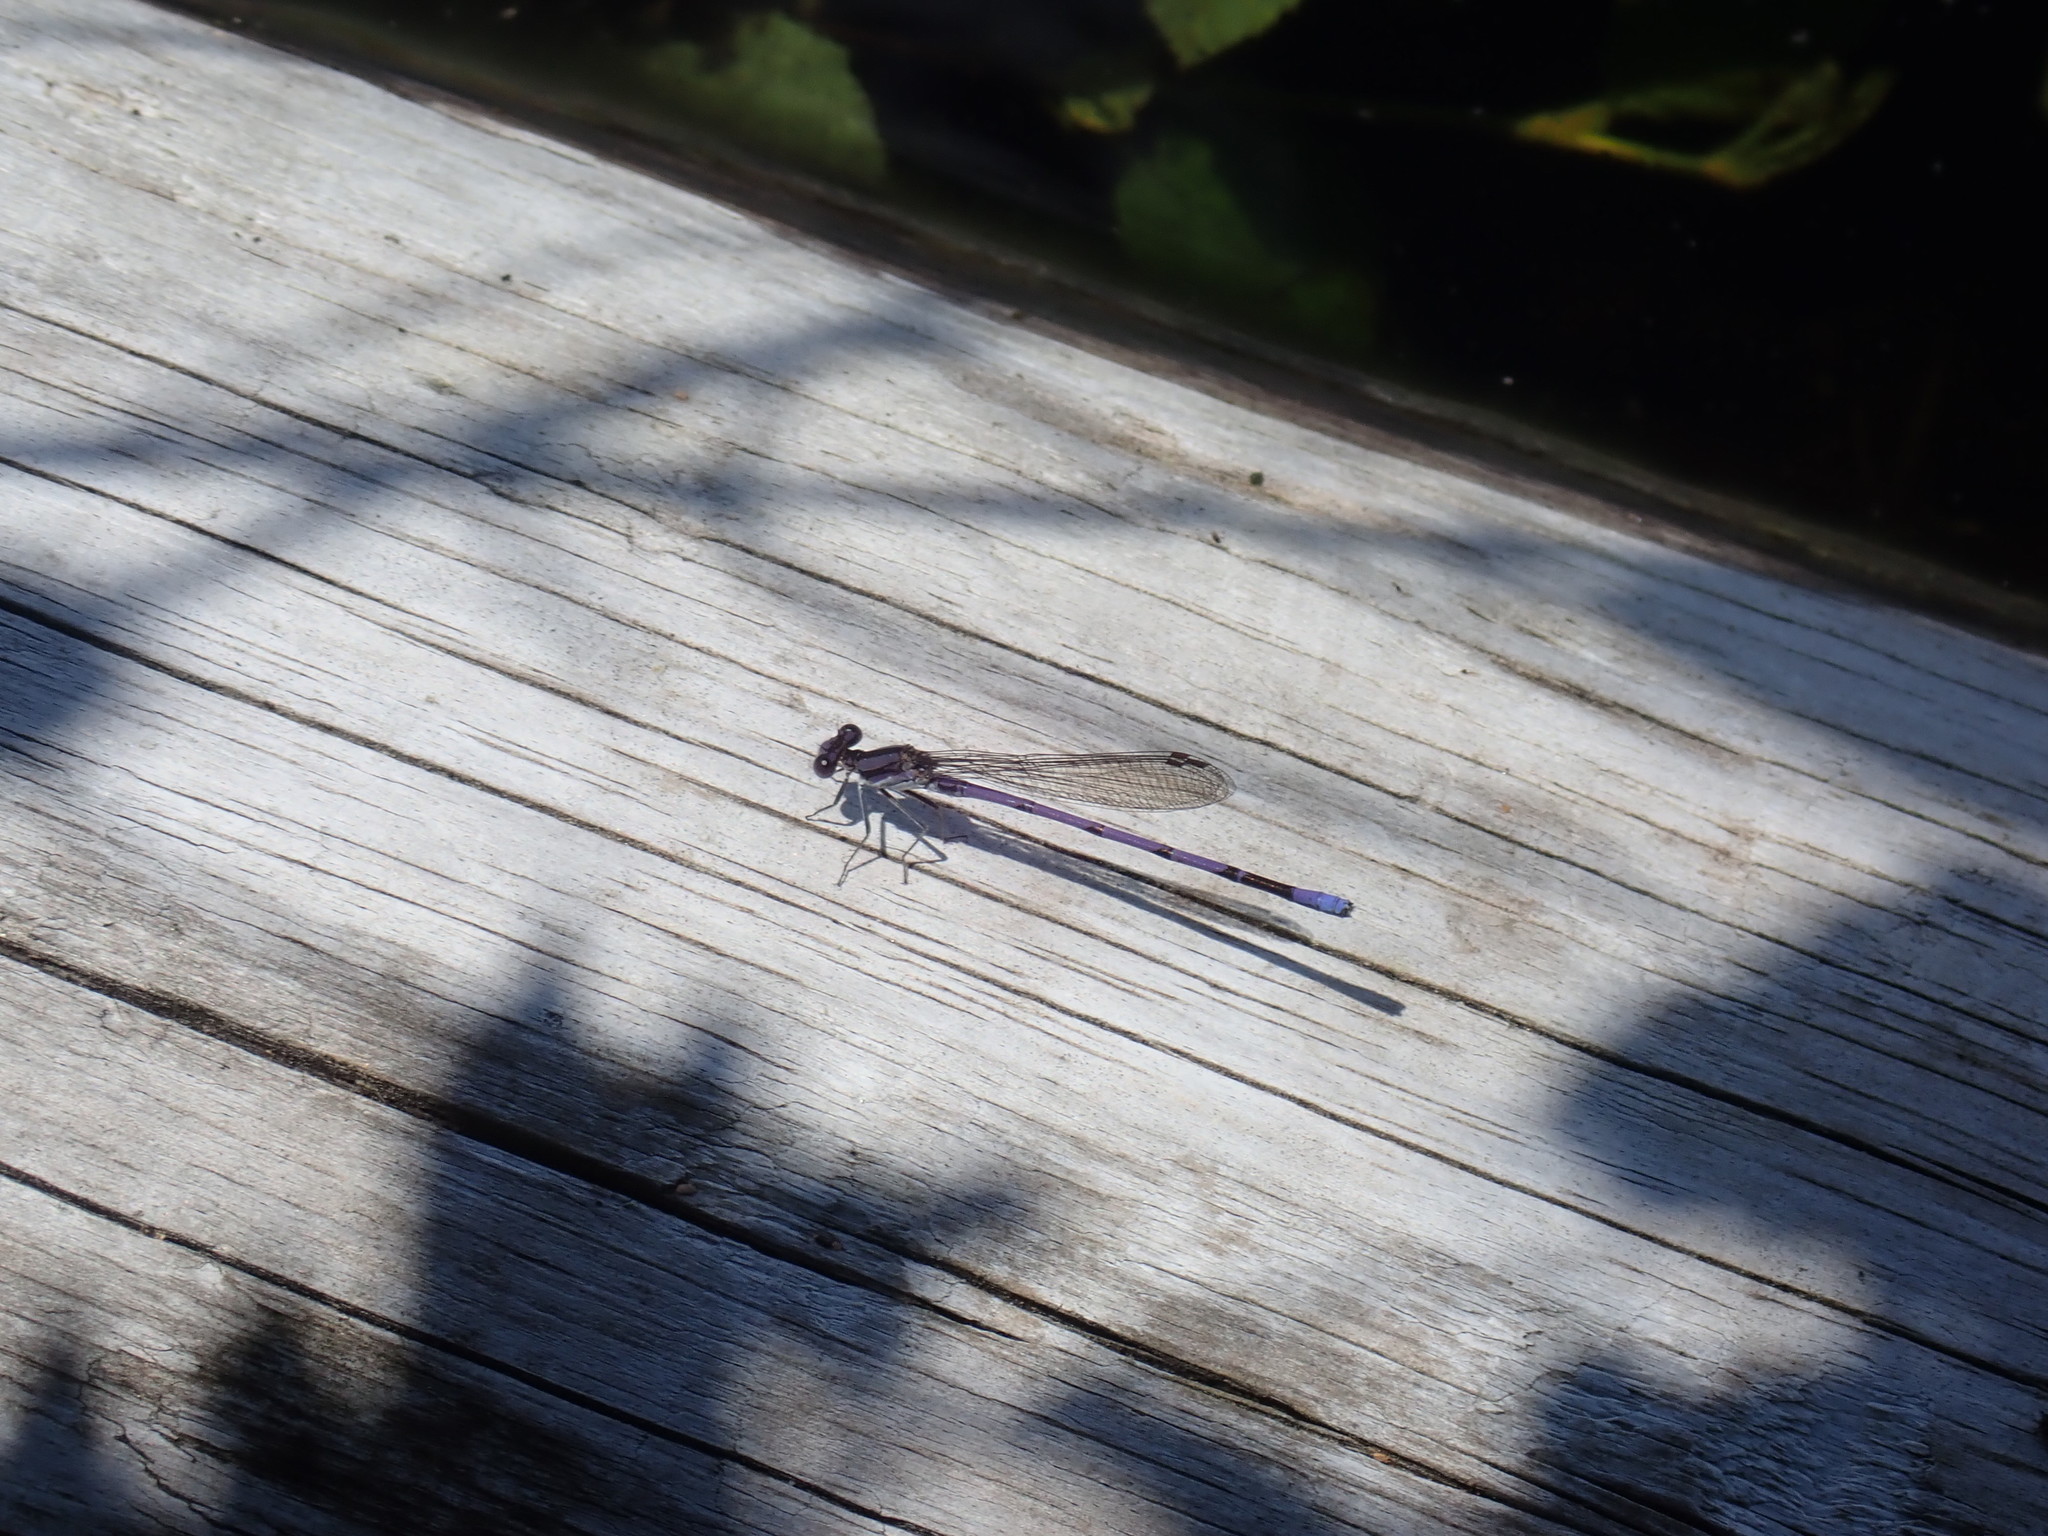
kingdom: Animalia
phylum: Arthropoda
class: Insecta
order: Odonata
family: Coenagrionidae
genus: Argia
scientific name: Argia fumipennis
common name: Variable dancer
